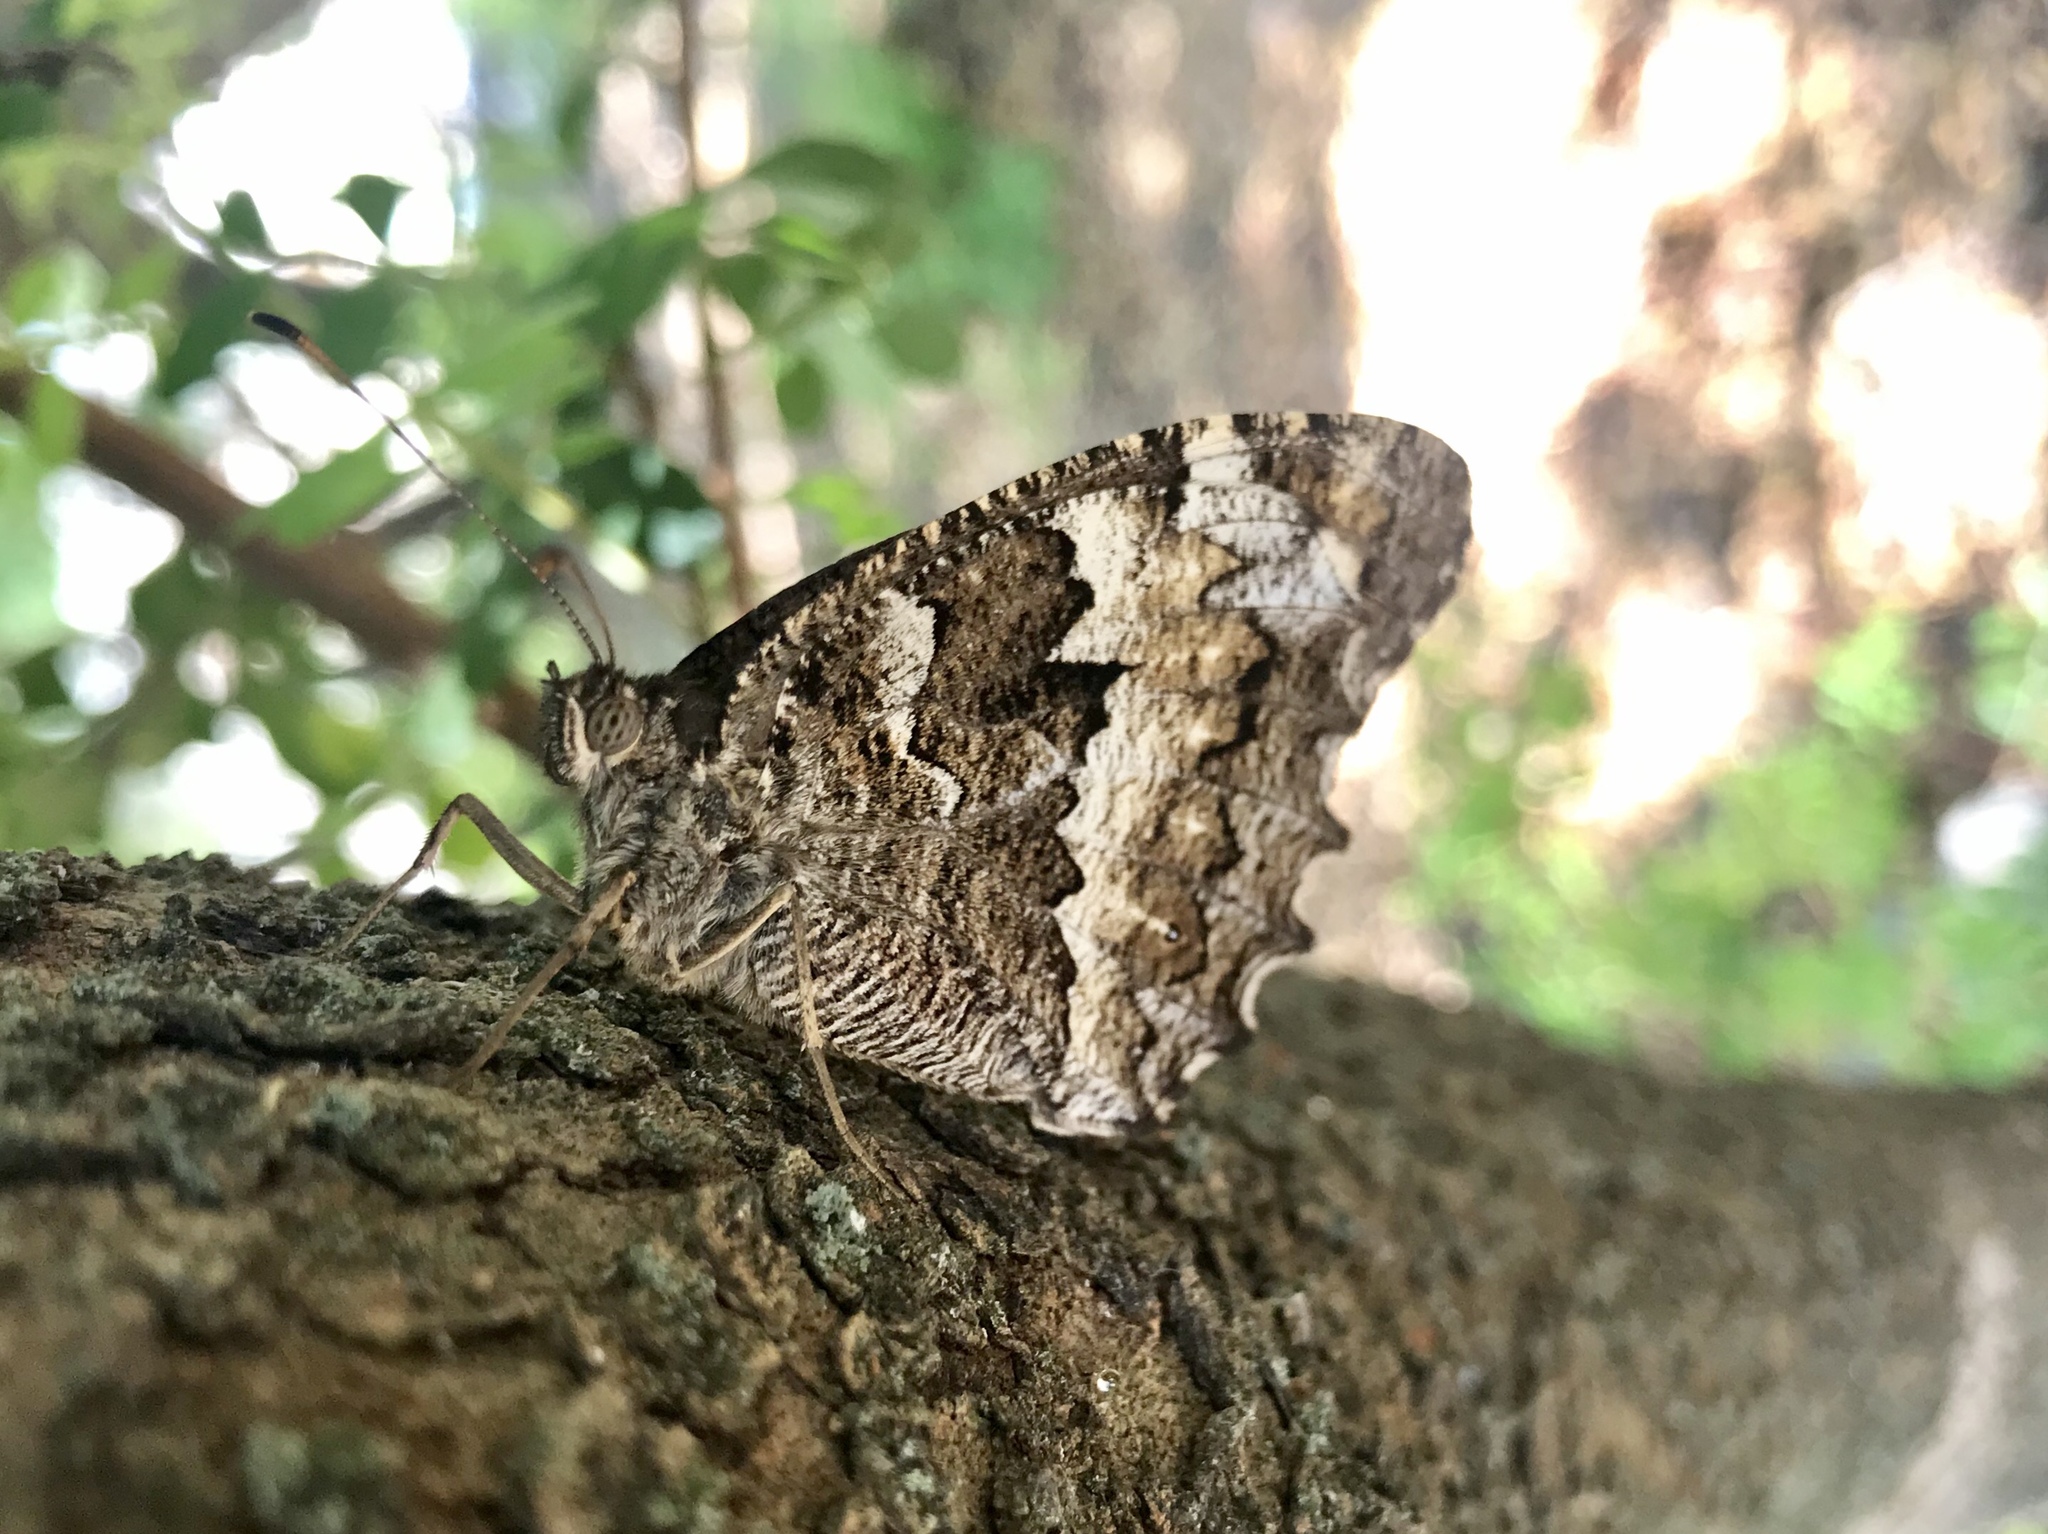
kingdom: Animalia
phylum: Arthropoda
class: Insecta
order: Lepidoptera
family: Lycaenidae
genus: Loweia
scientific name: Loweia tityrus
